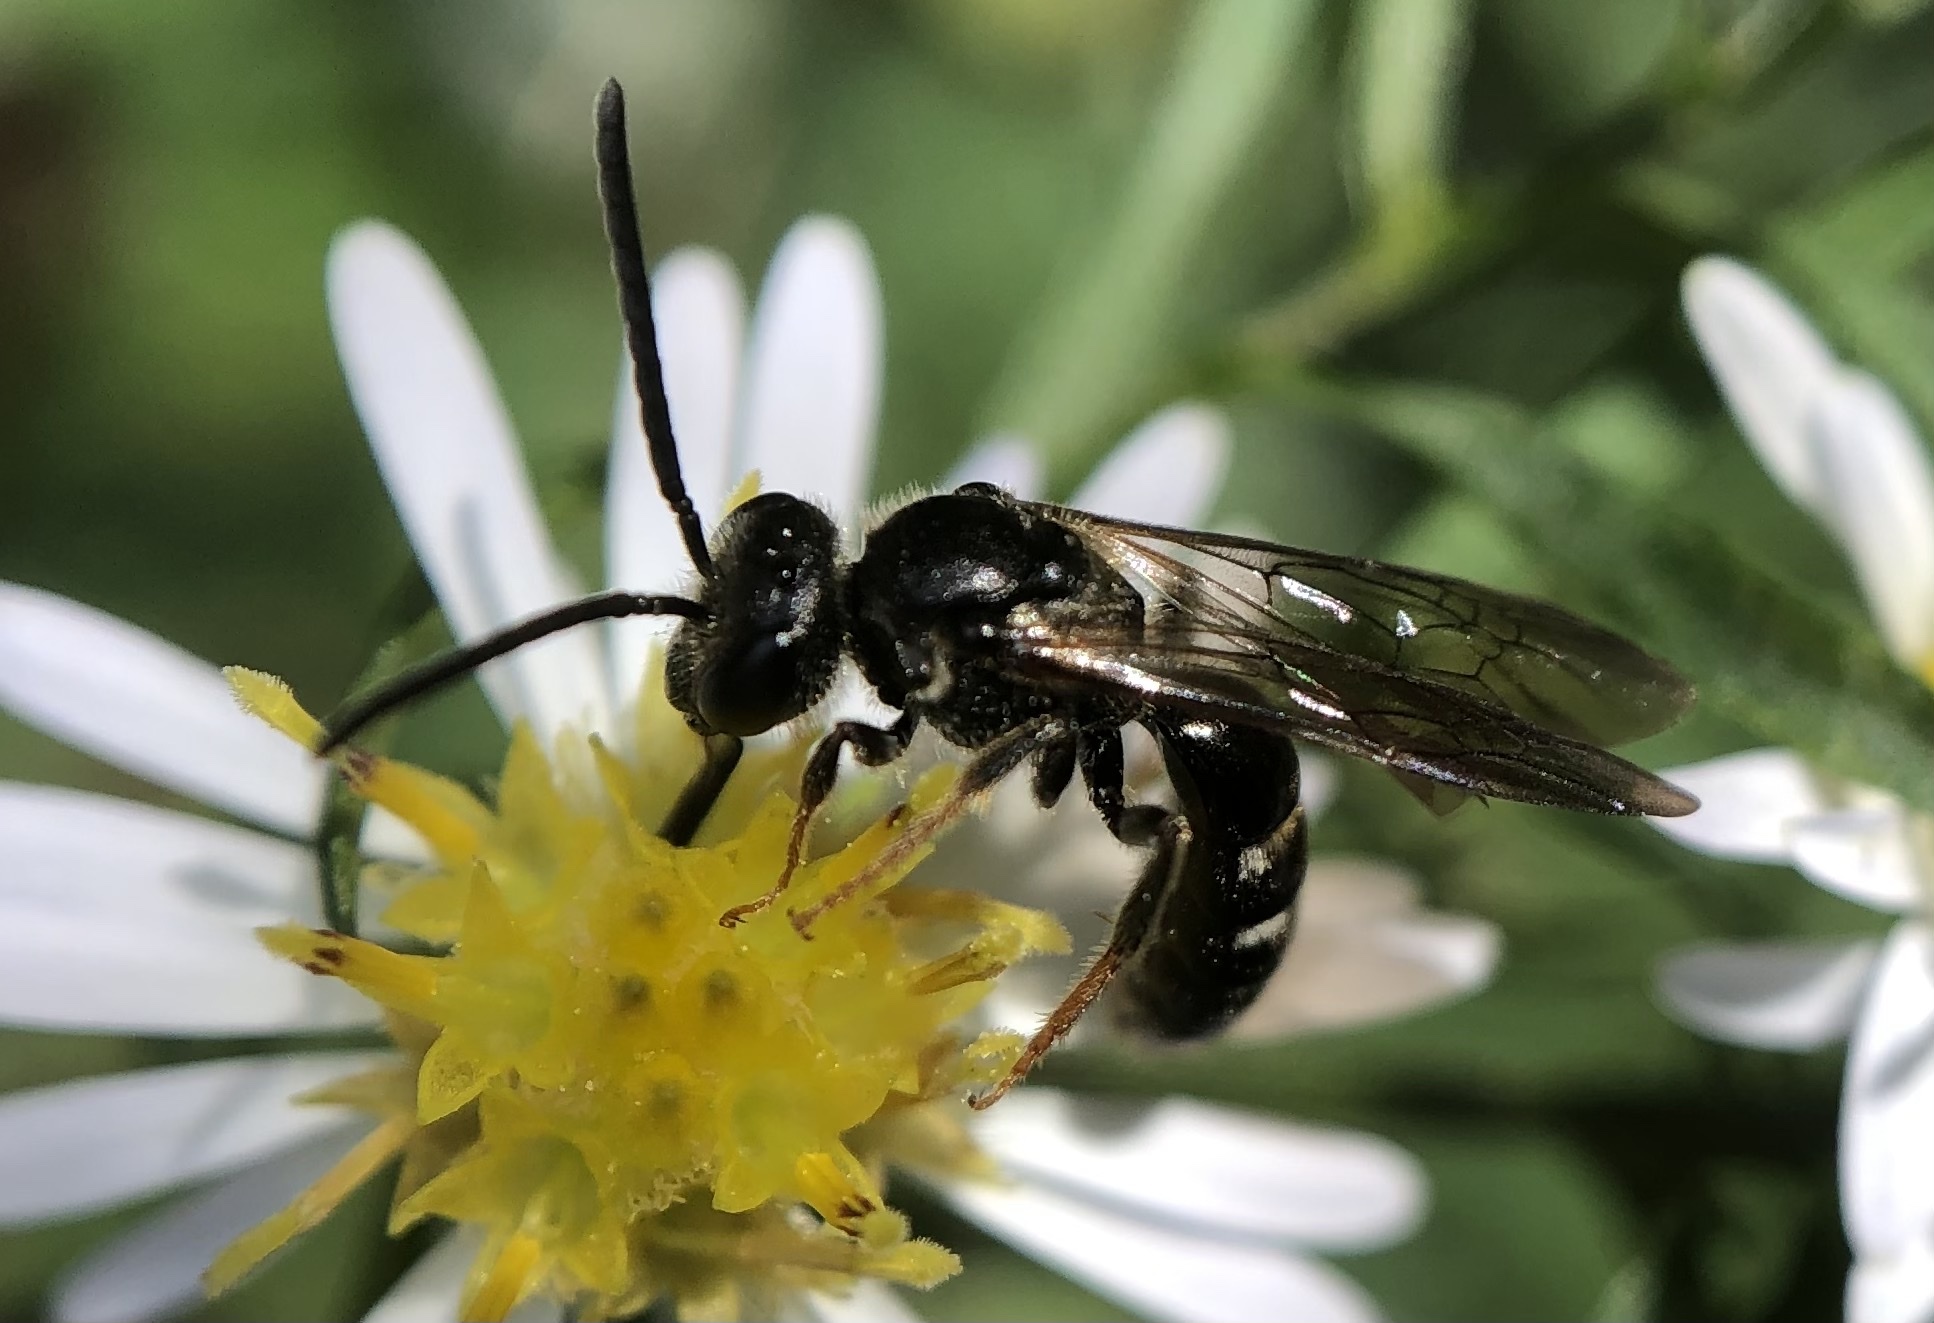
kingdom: Animalia
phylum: Arthropoda
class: Insecta
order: Hymenoptera
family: Halictidae
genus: Lasioglossum
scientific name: Lasioglossum fuscipenne
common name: Brown-winged sweat bee
